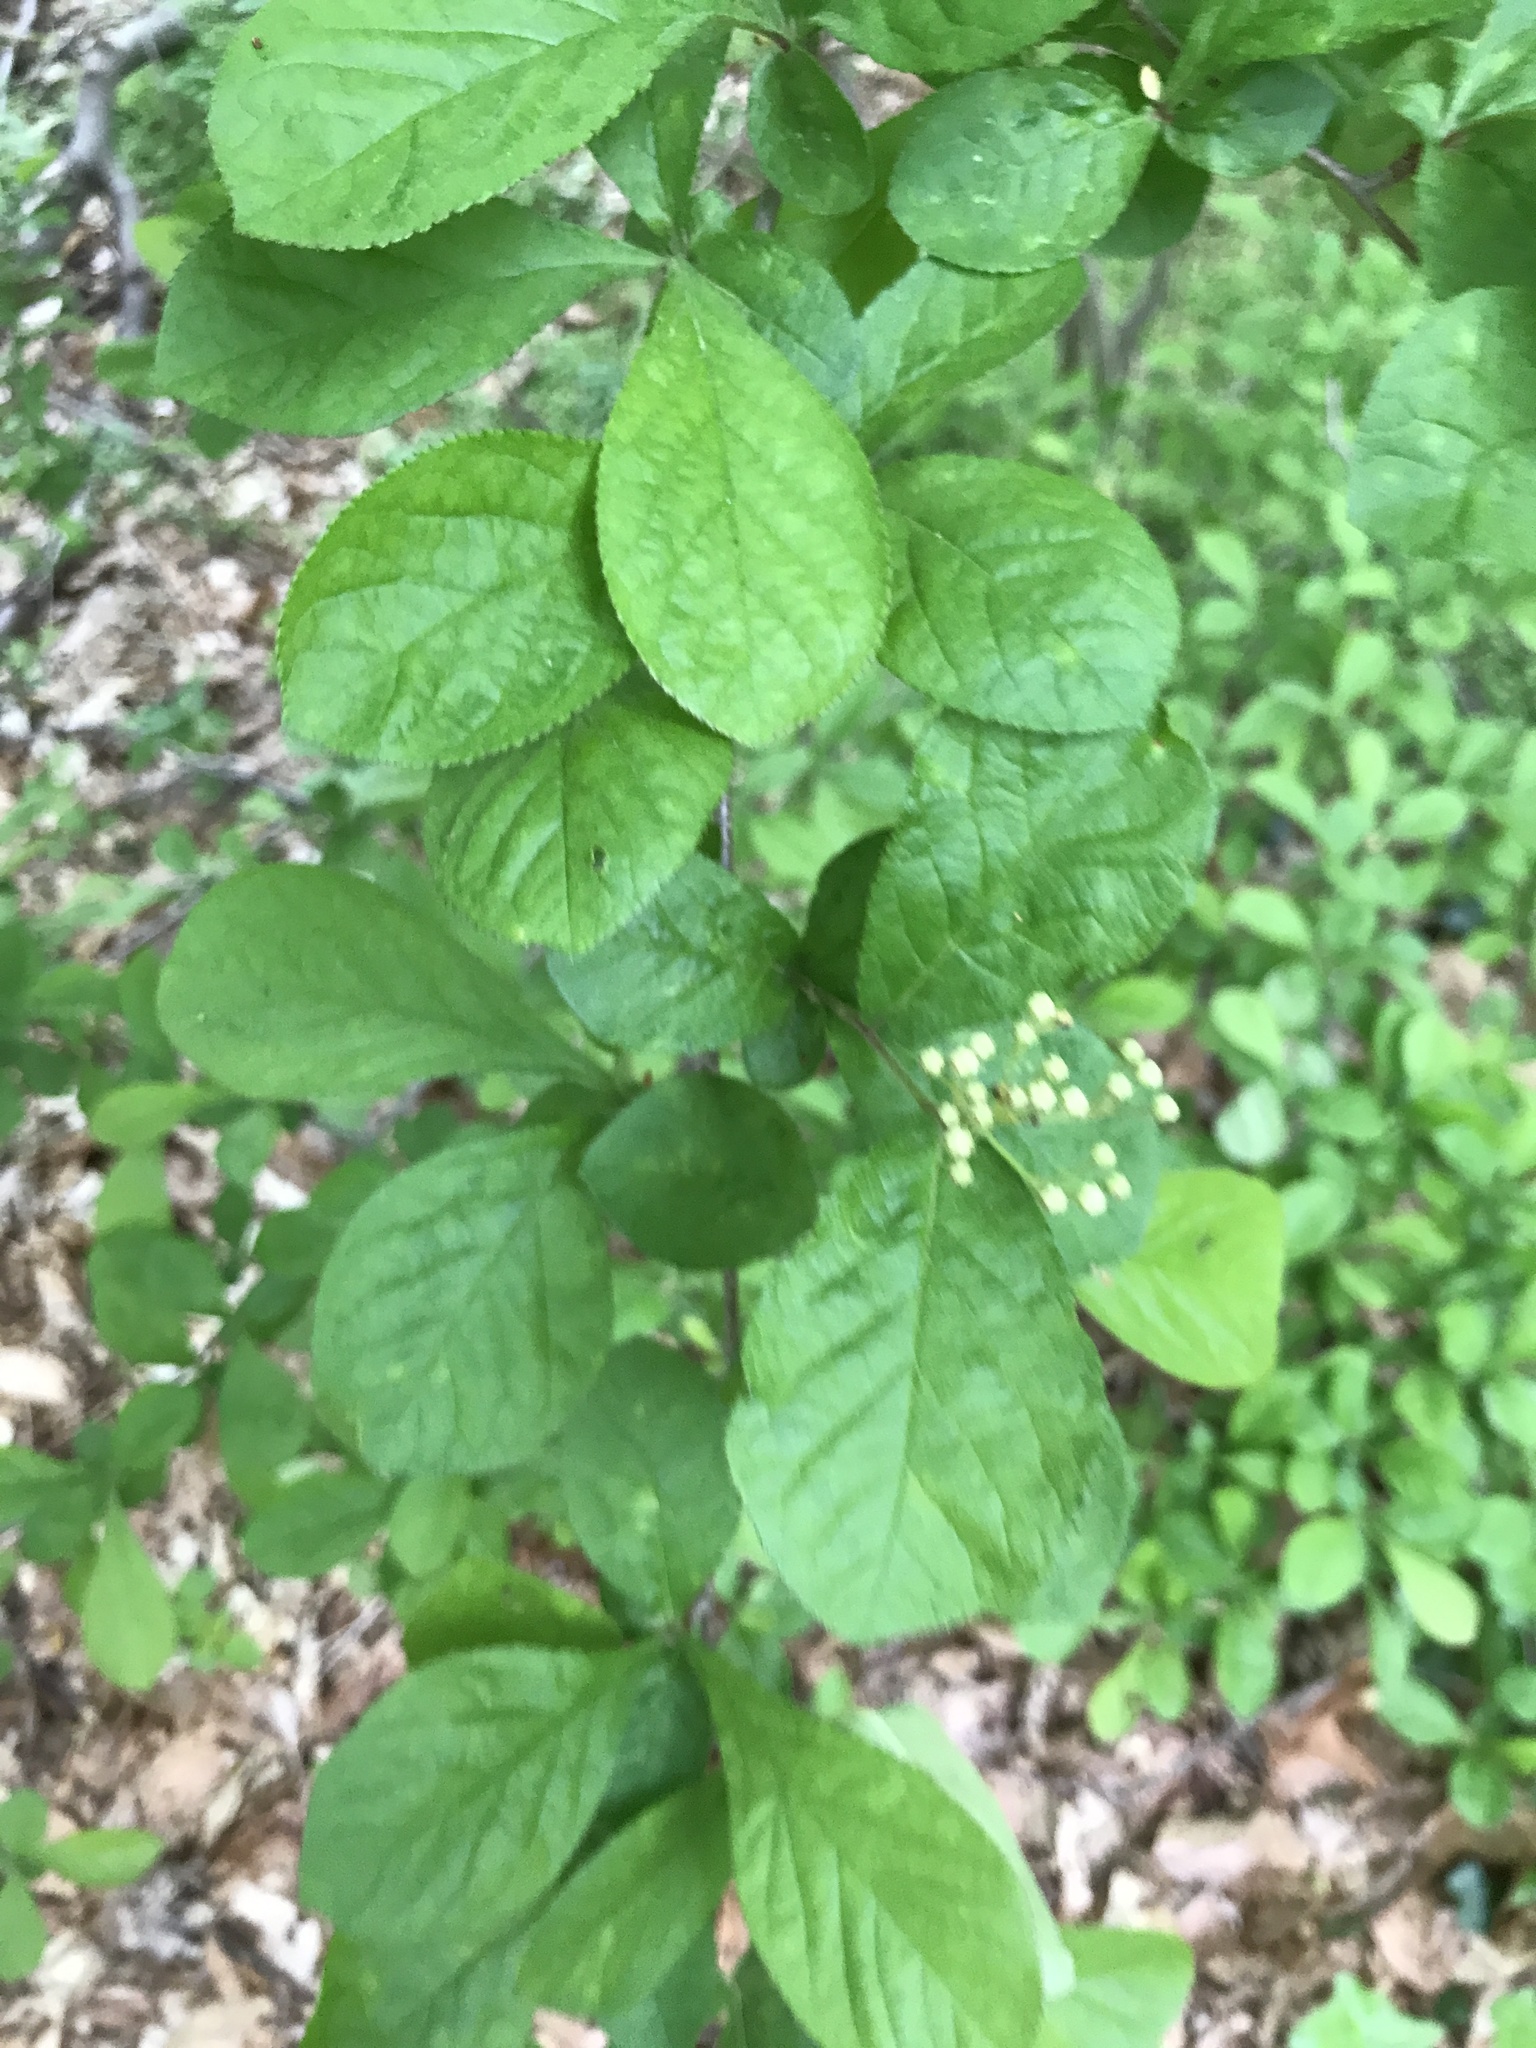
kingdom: Plantae
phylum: Tracheophyta
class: Magnoliopsida
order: Rosales
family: Rosaceae
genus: Pourthiaea
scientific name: Pourthiaea villosa
